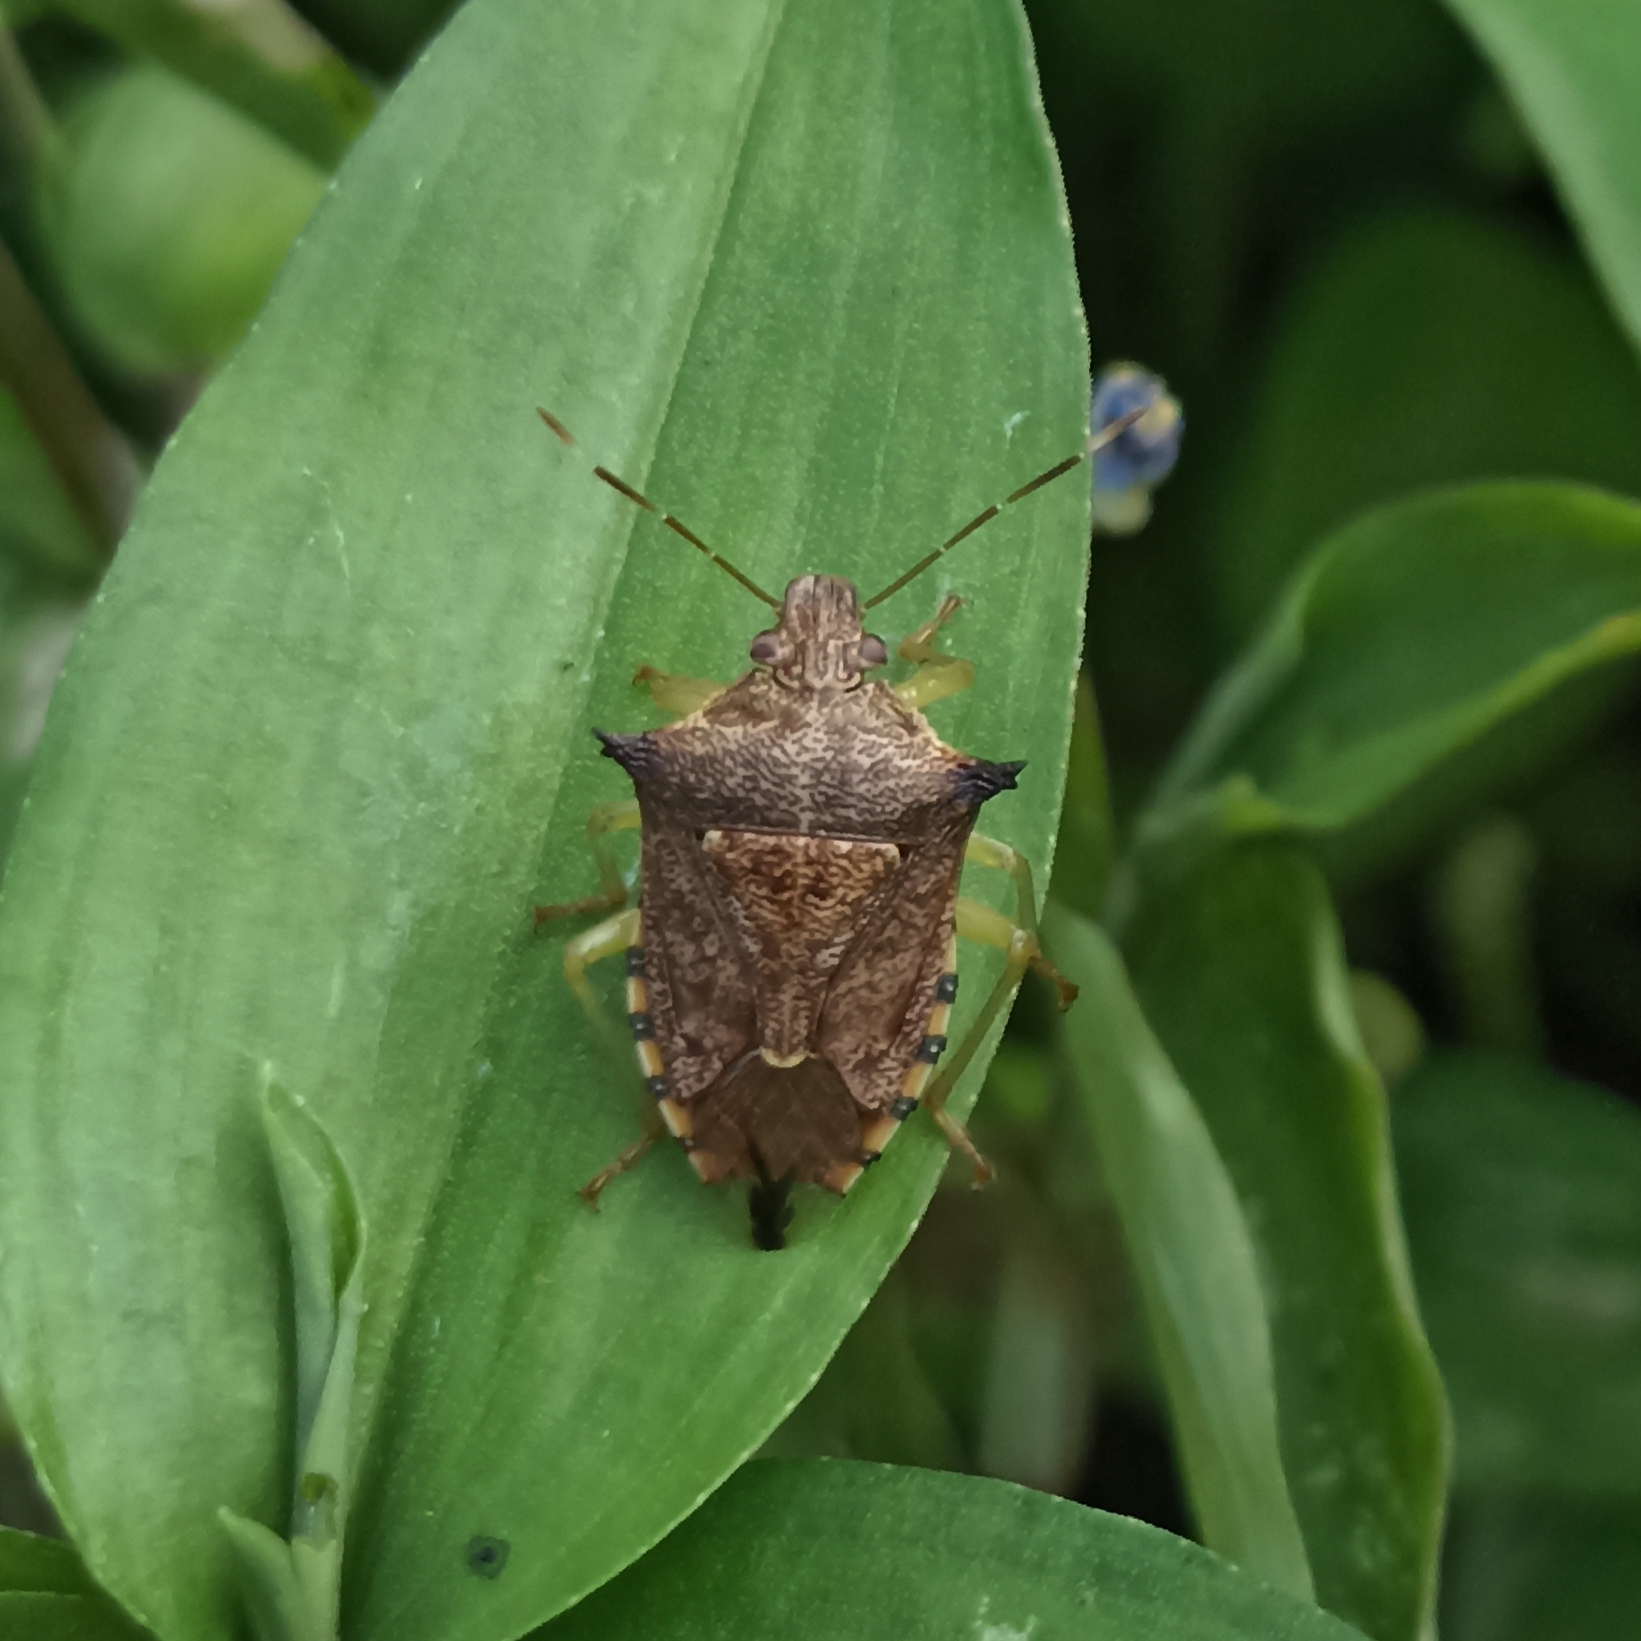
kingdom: Animalia
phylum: Arthropoda
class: Insecta
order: Hemiptera
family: Pentatomidae
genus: Podisus
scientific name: Podisus sagitta
